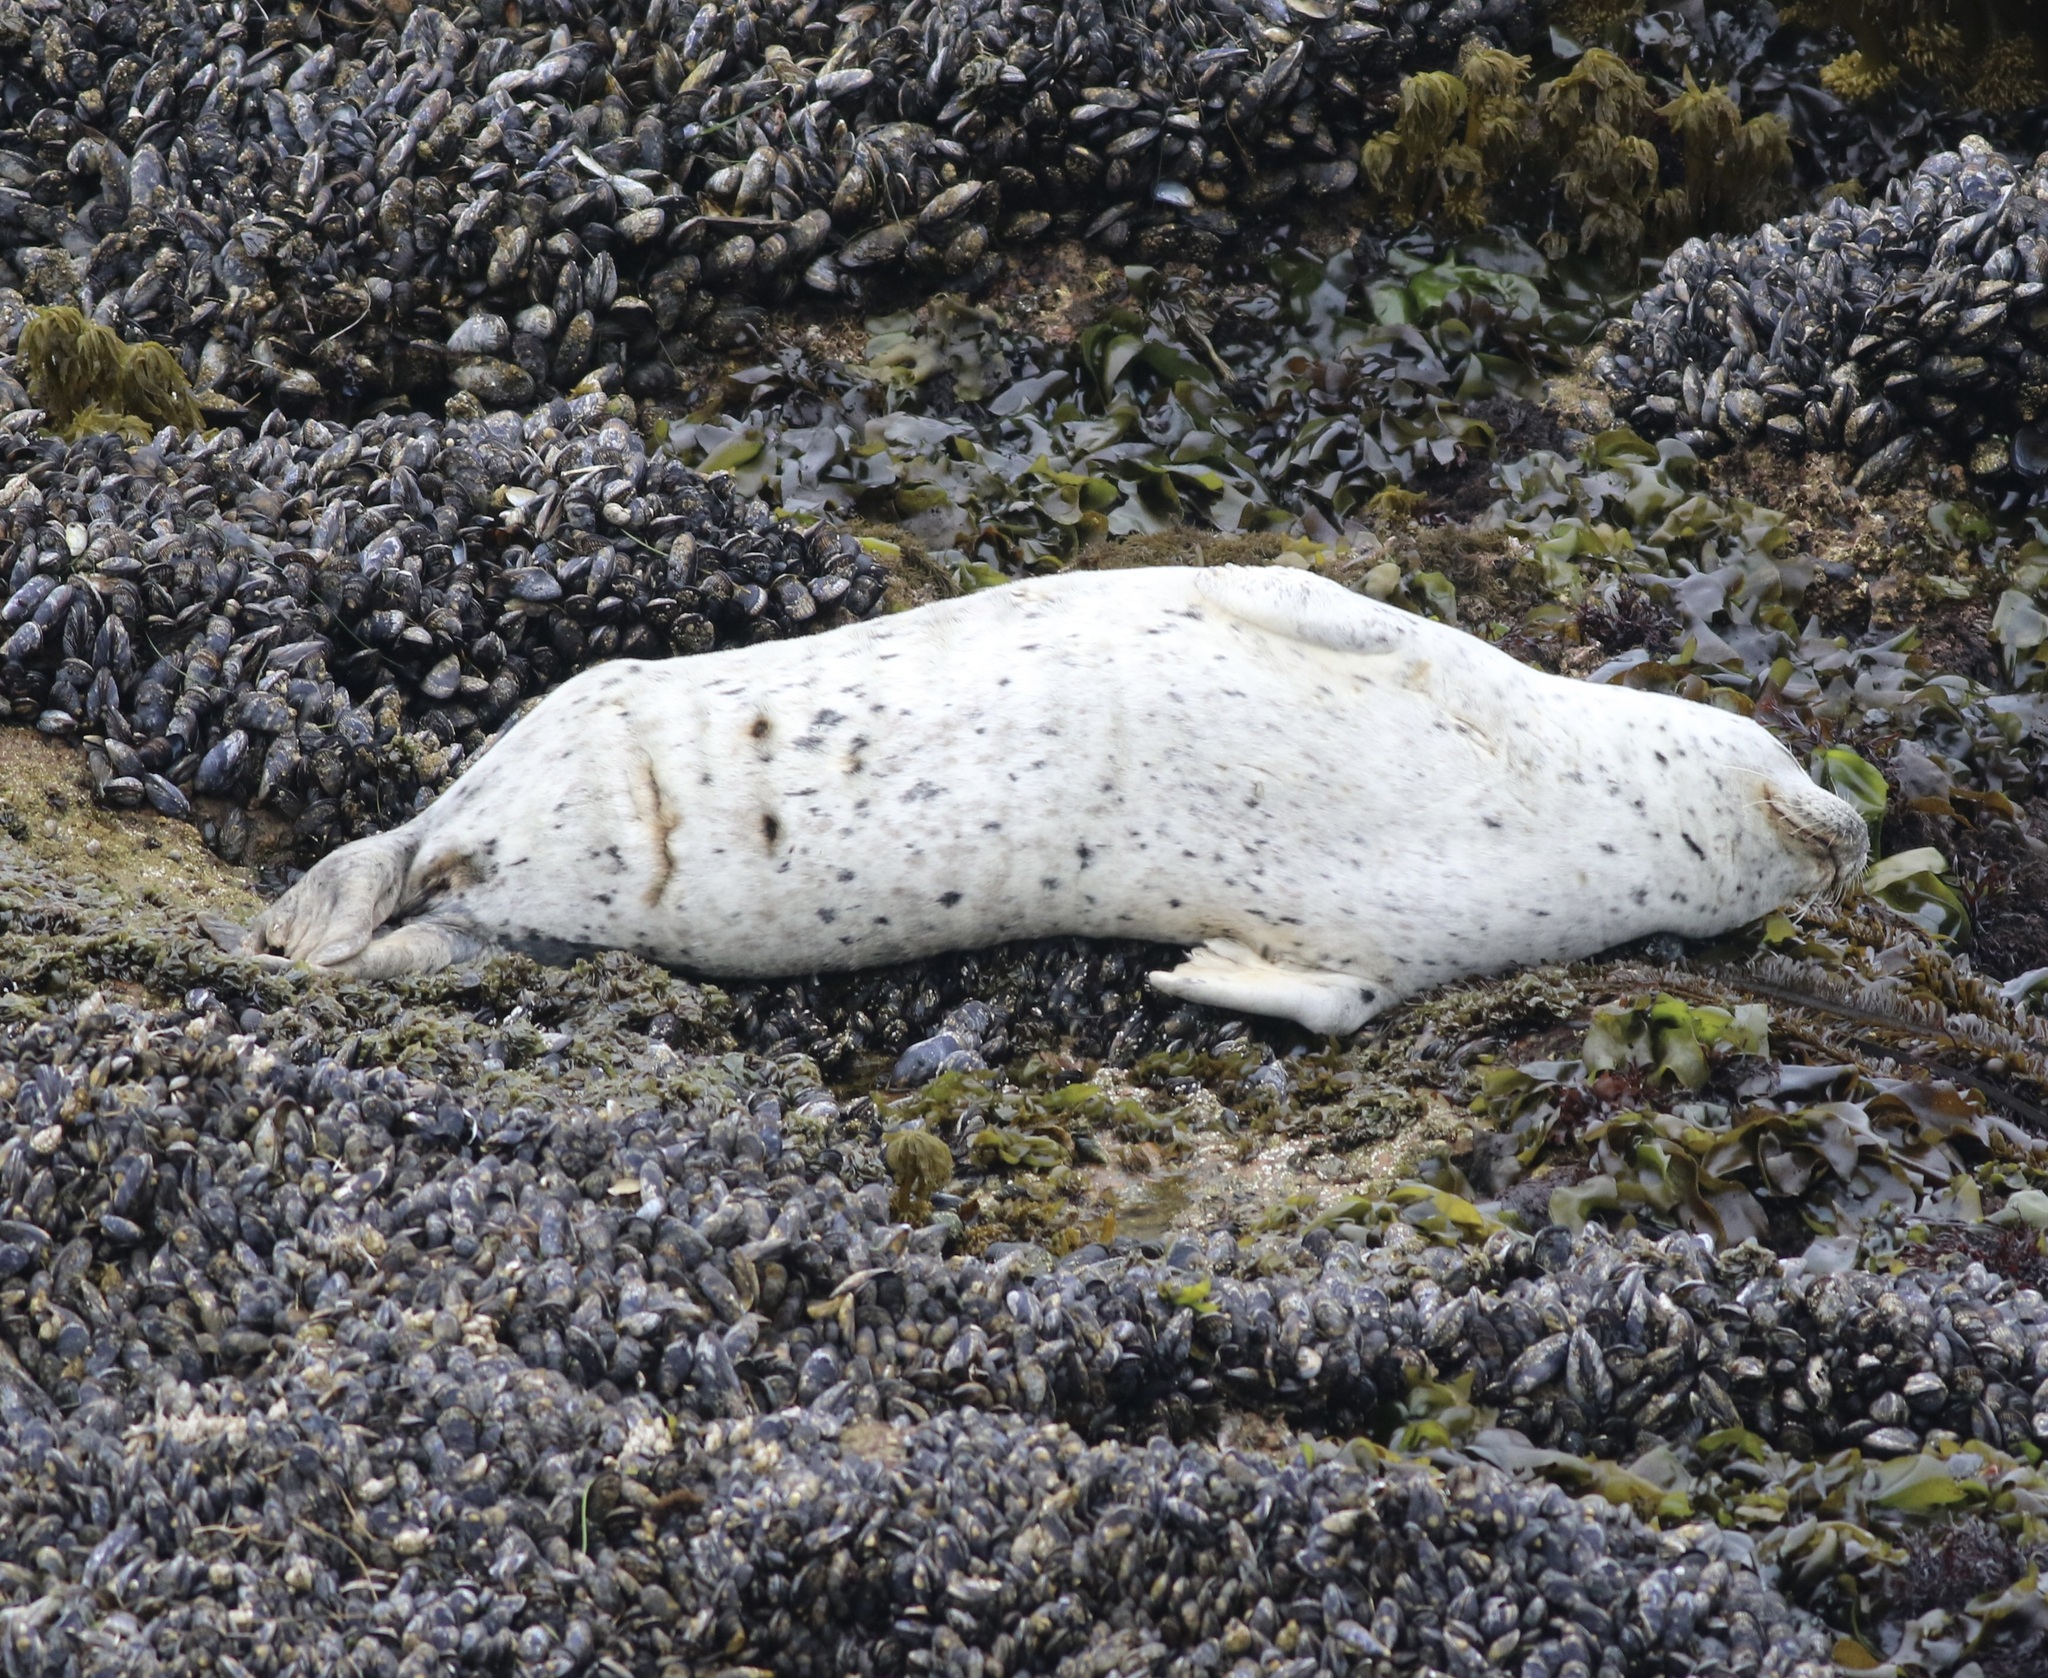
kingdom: Animalia
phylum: Chordata
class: Mammalia
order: Carnivora
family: Phocidae
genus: Phoca
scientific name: Phoca vitulina
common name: Harbor seal
